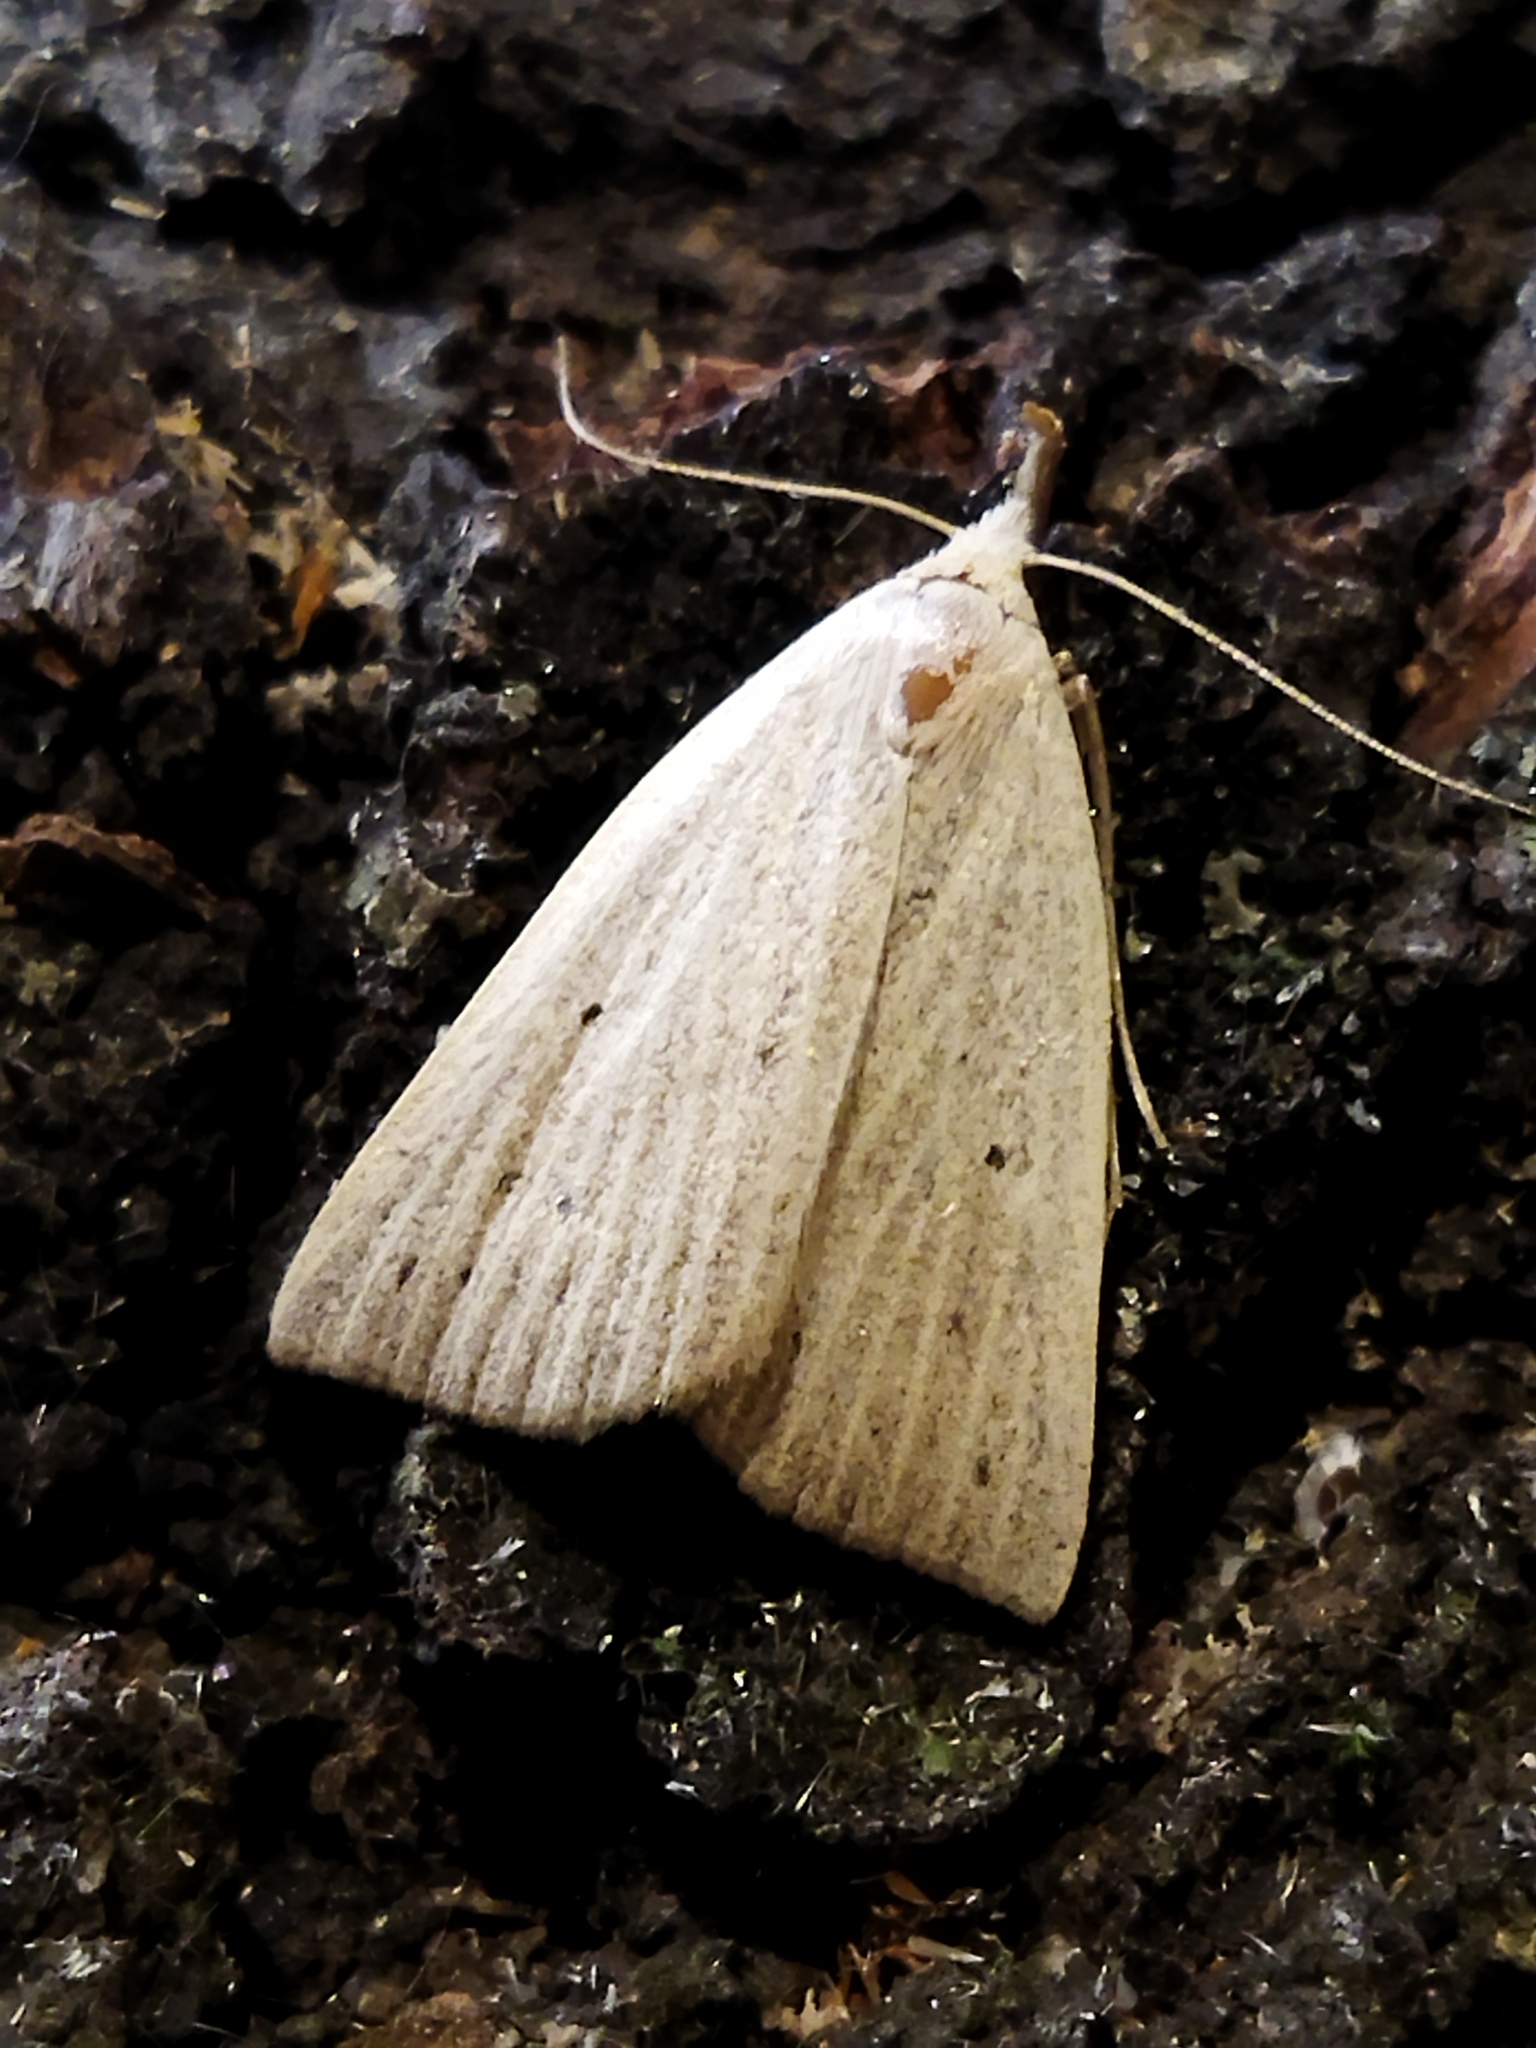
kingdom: Animalia
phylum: Arthropoda
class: Insecta
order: Lepidoptera
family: Erebidae
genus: Macrochilo
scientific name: Macrochilo cribrumalis
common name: Dotted fan-foot
